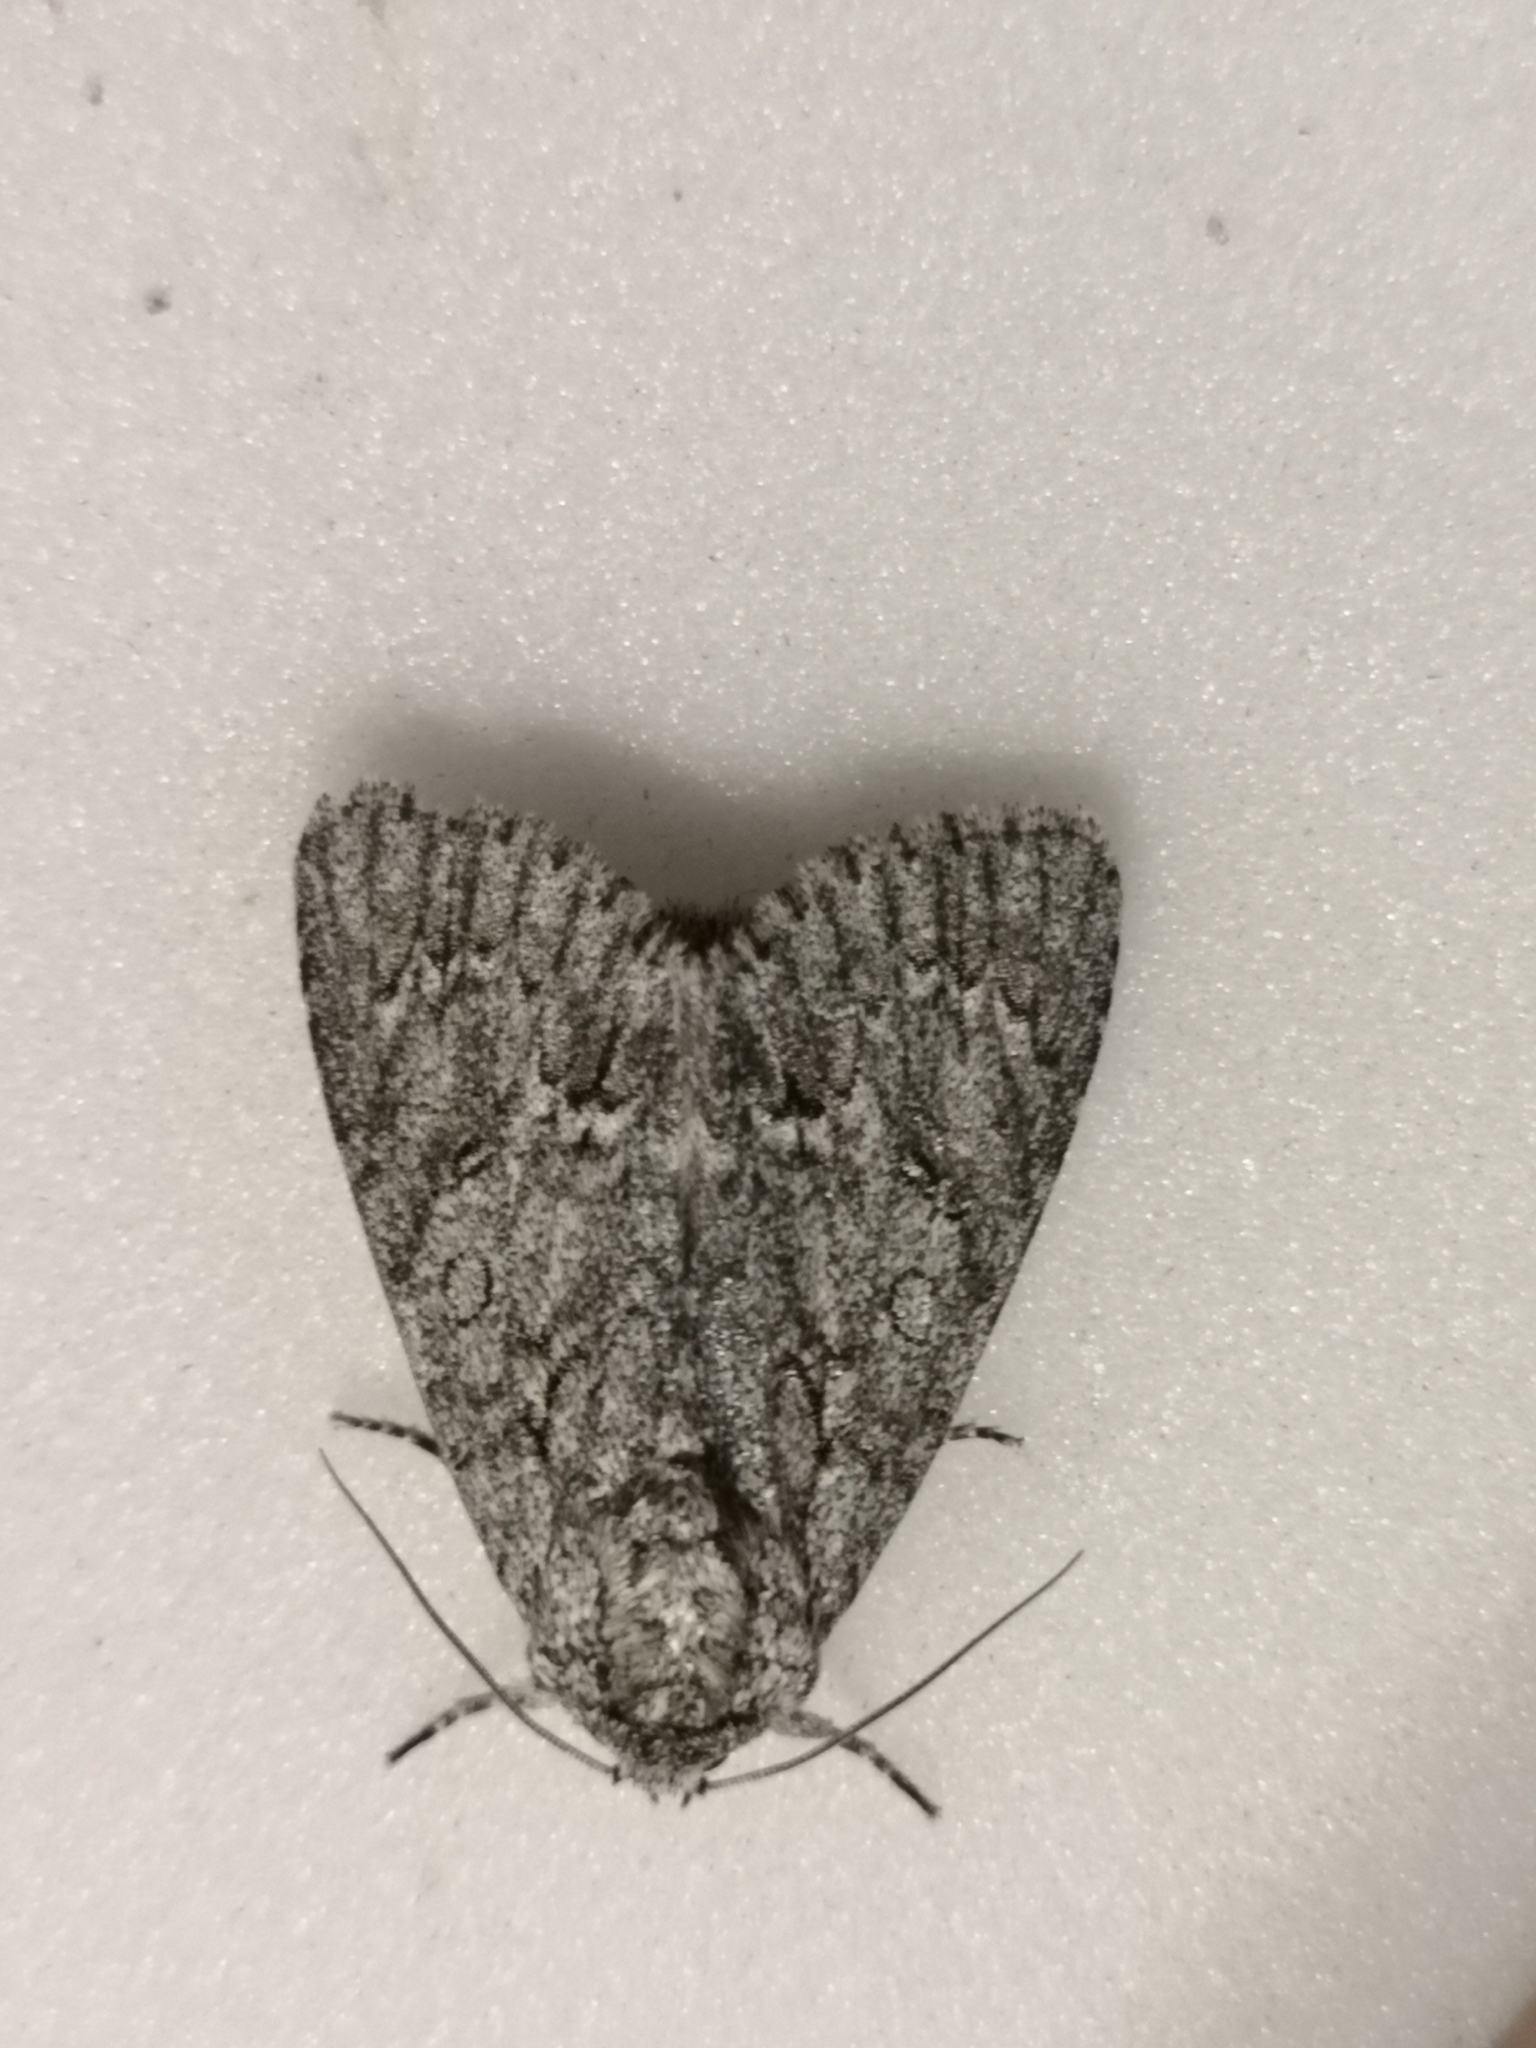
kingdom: Animalia
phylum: Arthropoda
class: Insecta
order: Lepidoptera
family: Noctuidae
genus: Acronicta
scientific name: Acronicta aceris
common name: Sycamore
